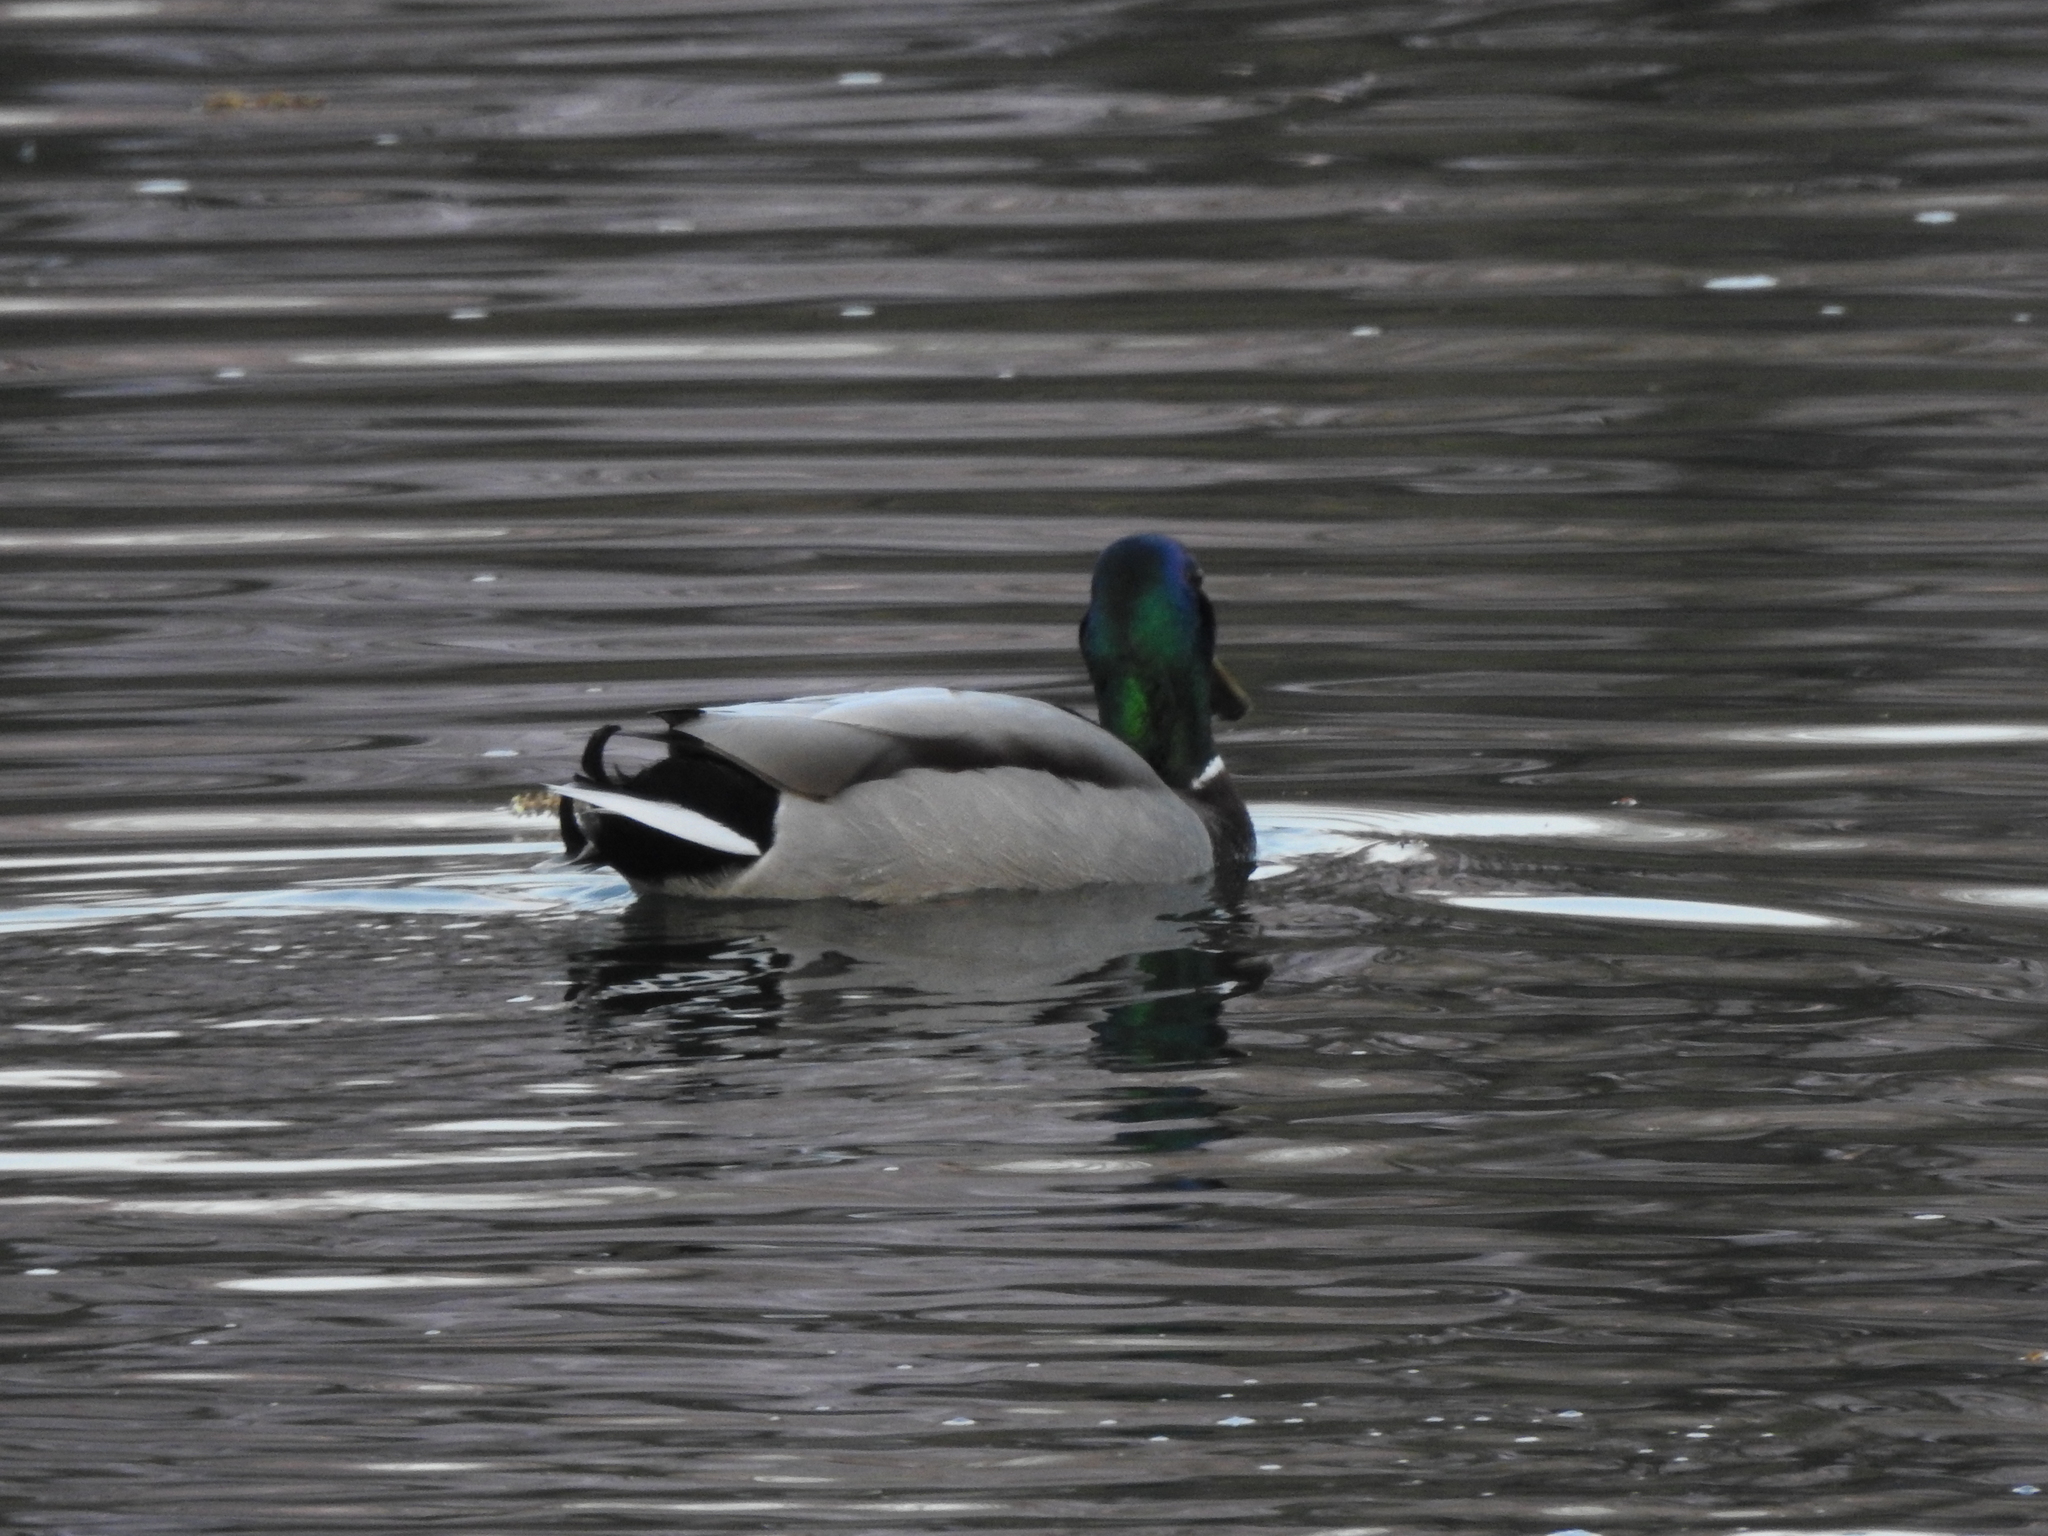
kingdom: Animalia
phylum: Chordata
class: Aves
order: Anseriformes
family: Anatidae
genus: Anas
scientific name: Anas platyrhynchos
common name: Mallard
